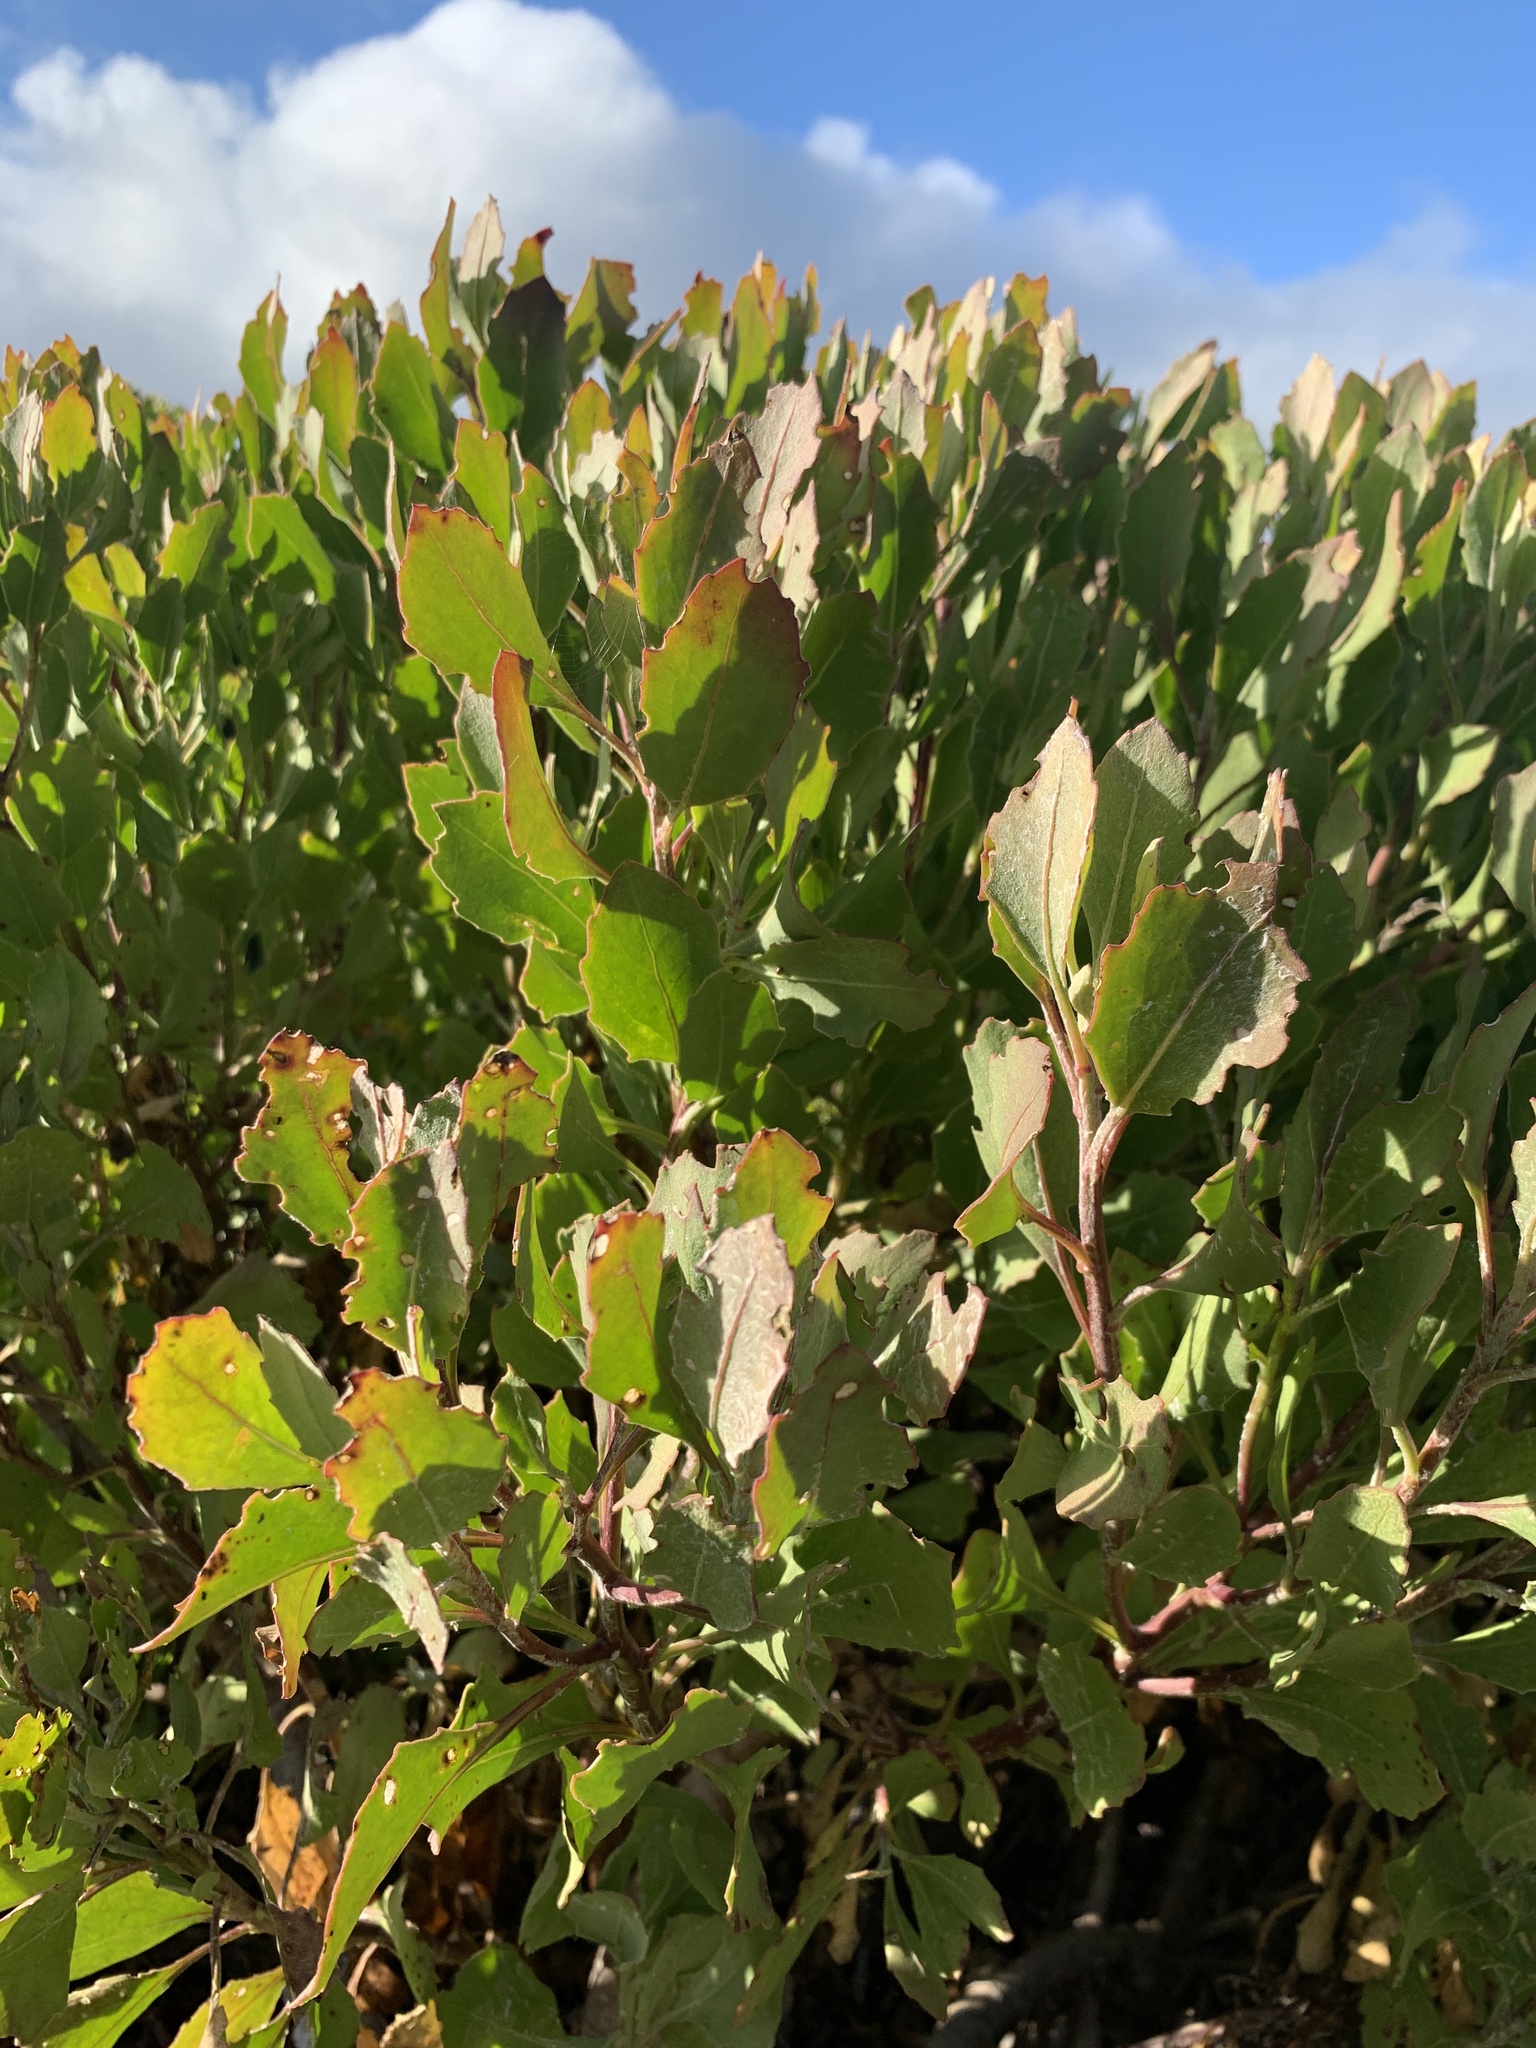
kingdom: Plantae
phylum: Tracheophyta
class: Magnoliopsida
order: Asterales
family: Asteraceae
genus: Osteospermum
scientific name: Osteospermum moniliferum
